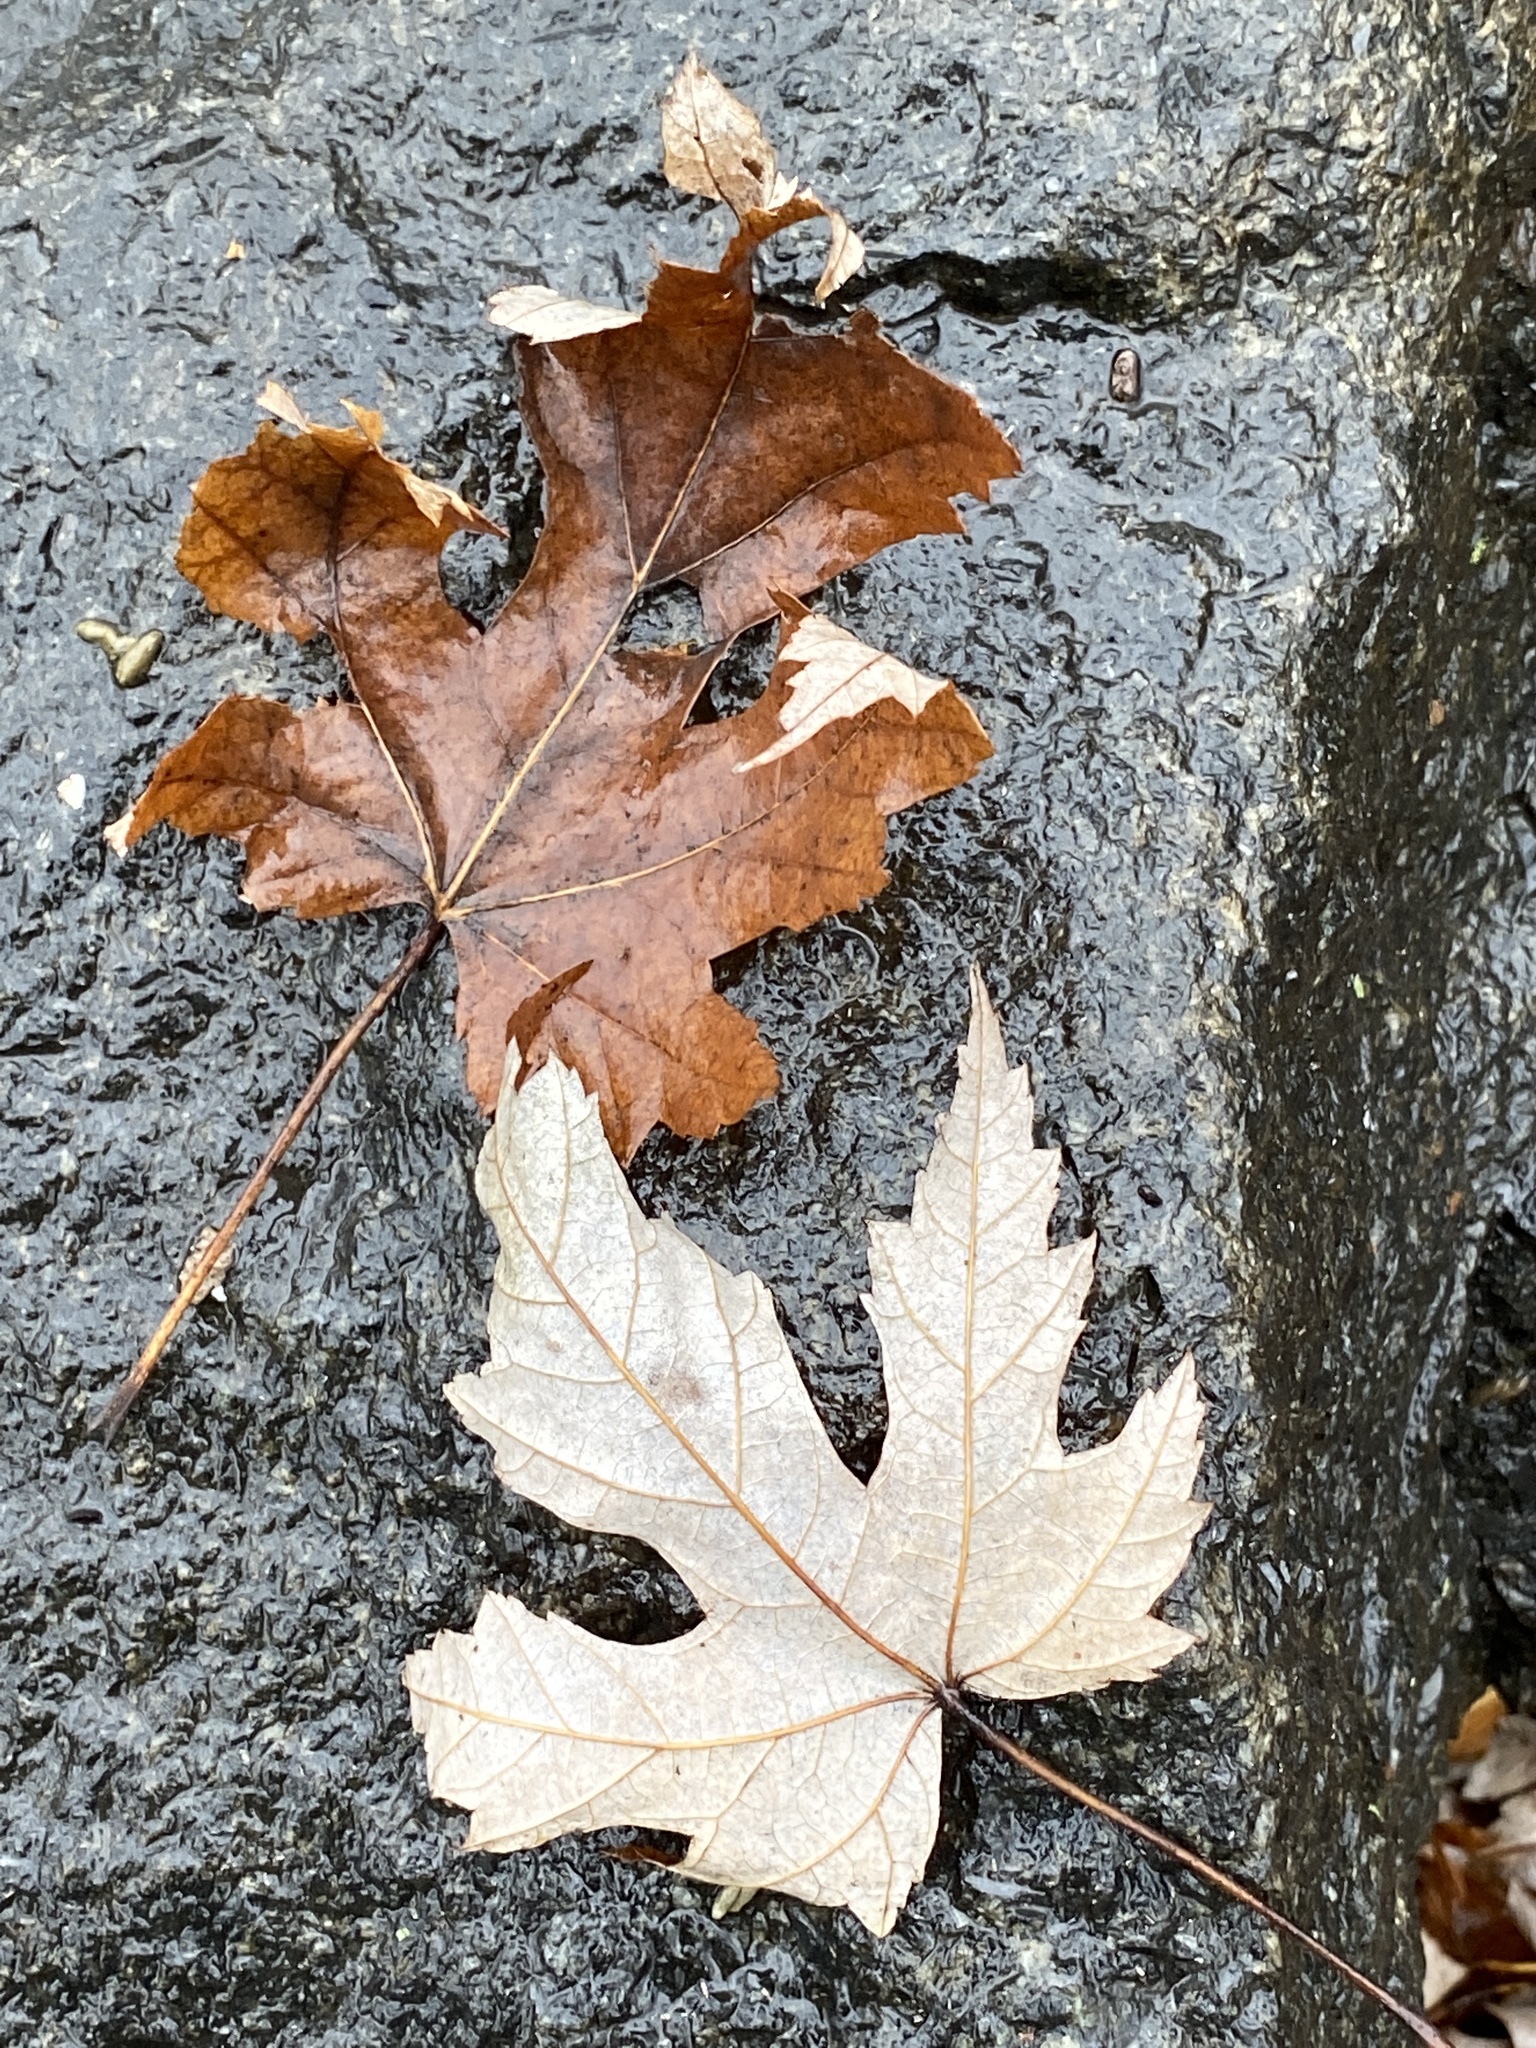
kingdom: Plantae
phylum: Tracheophyta
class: Magnoliopsida
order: Sapindales
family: Sapindaceae
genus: Acer
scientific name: Acer saccharinum
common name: Silver maple
